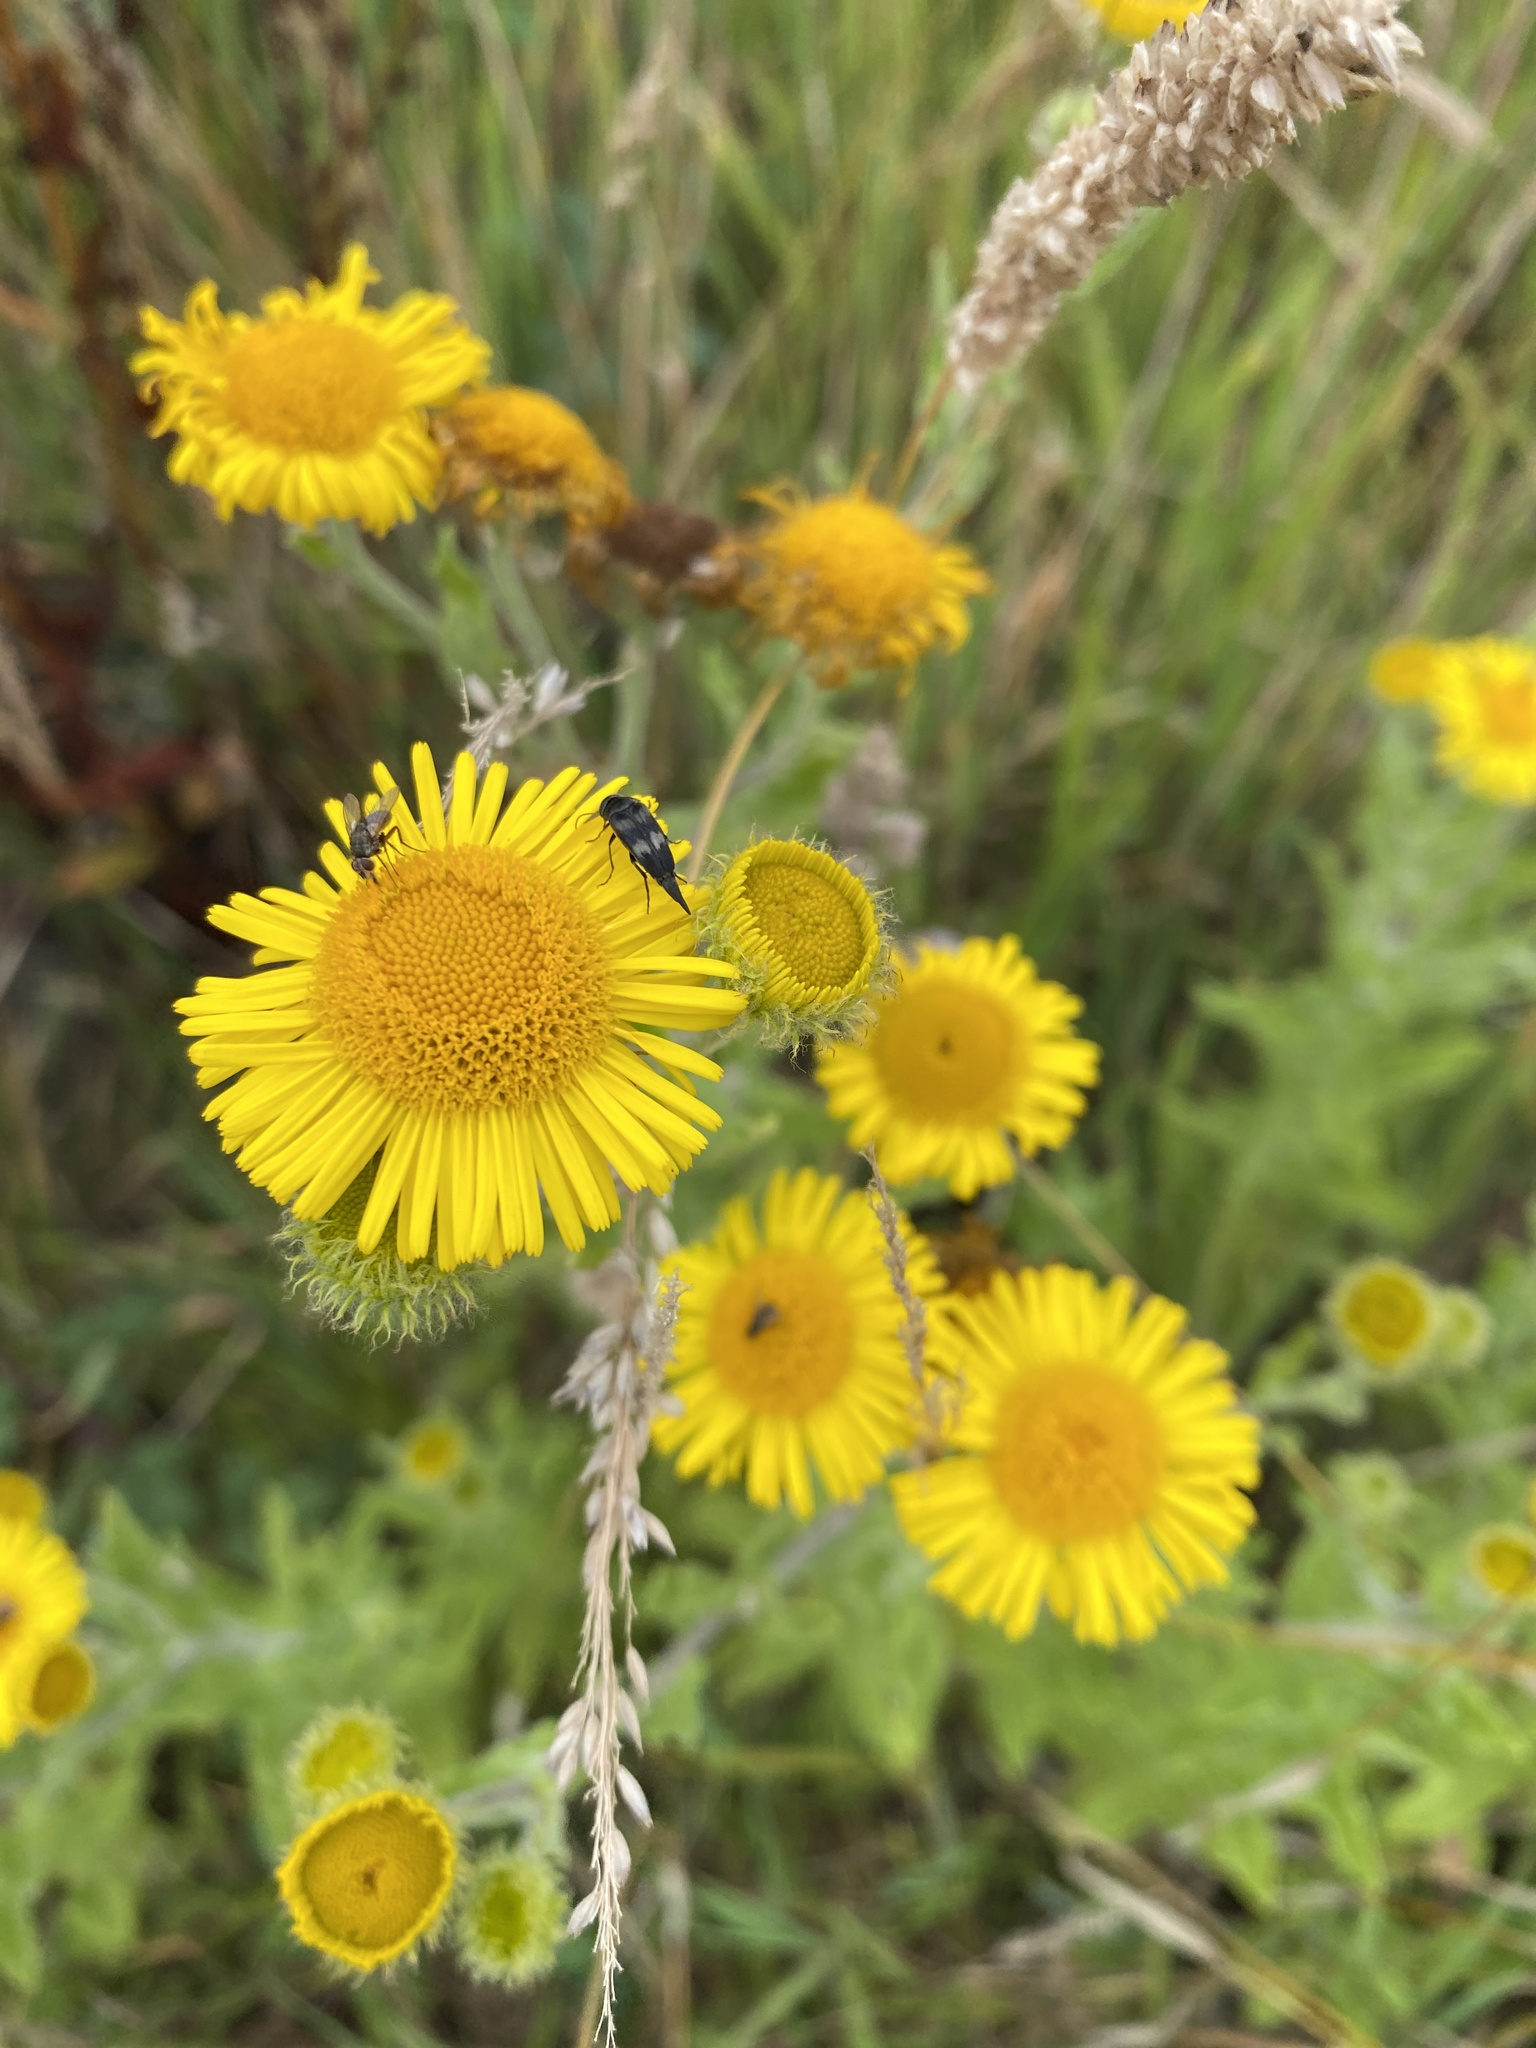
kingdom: Plantae
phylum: Tracheophyta
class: Magnoliopsida
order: Asterales
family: Asteraceae
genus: Pulicaria
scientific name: Pulicaria dysenterica
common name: Common fleabane
